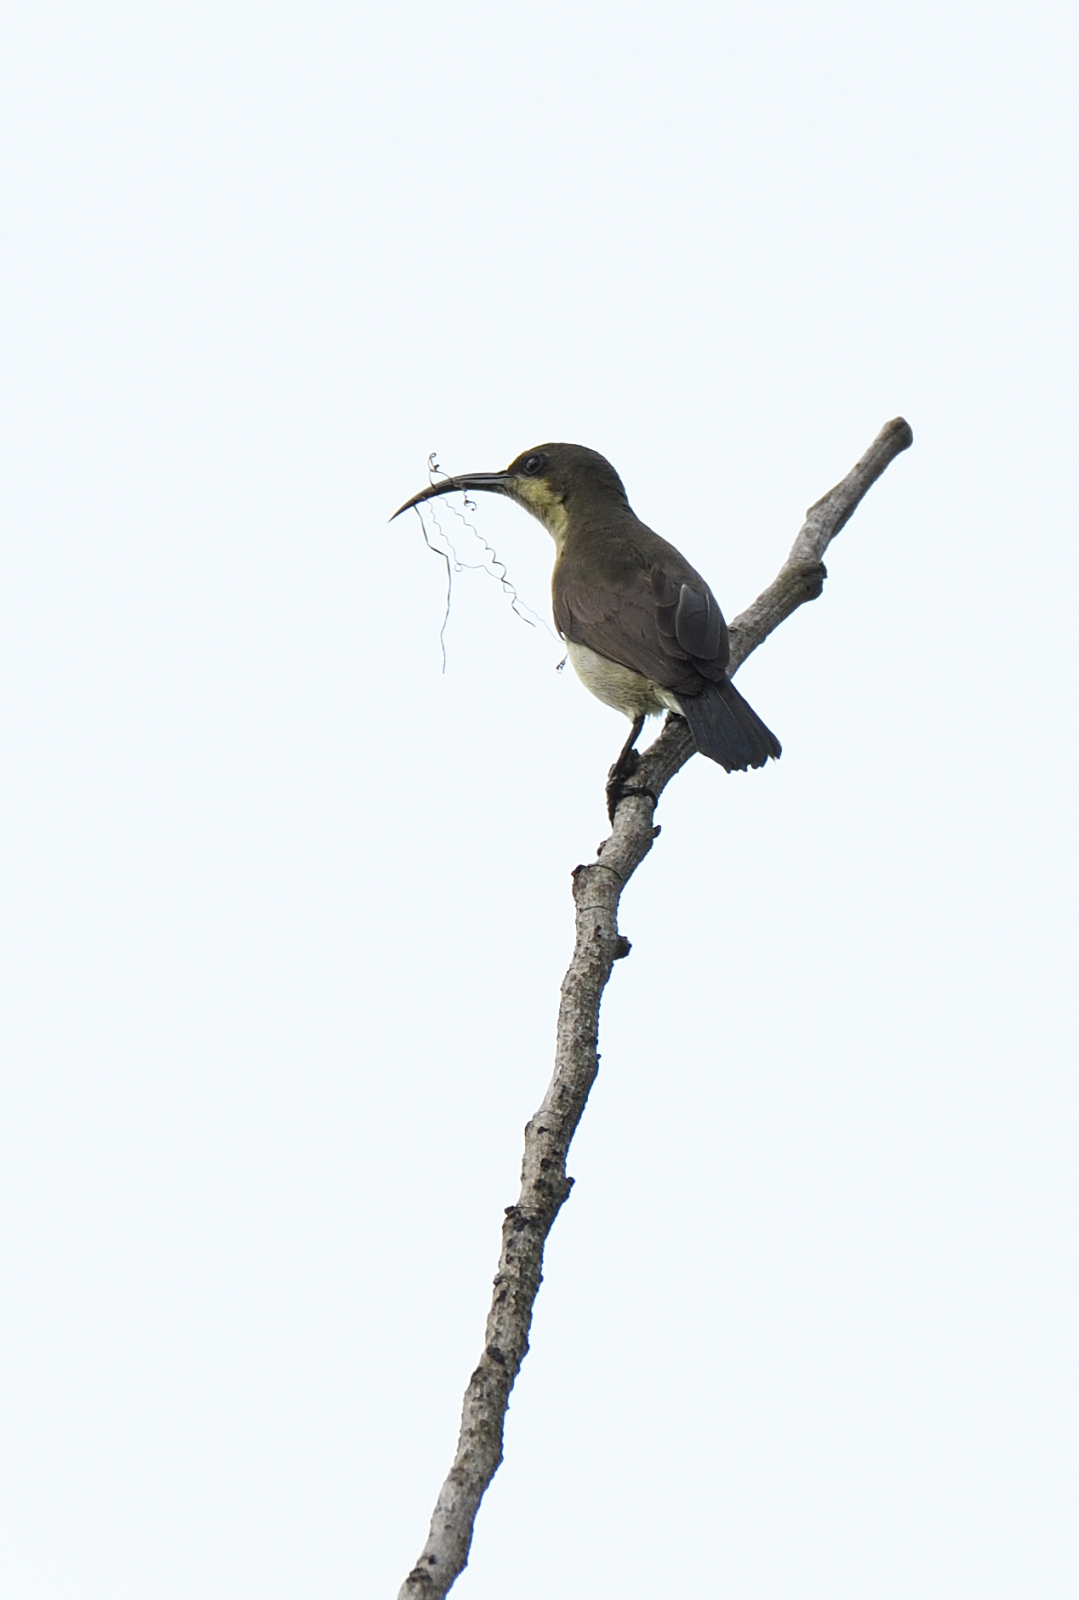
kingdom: Animalia
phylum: Chordata
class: Aves
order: Passeriformes
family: Nectariniidae
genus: Cinnyris
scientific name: Cinnyris lotenius
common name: Loten's sunbird
